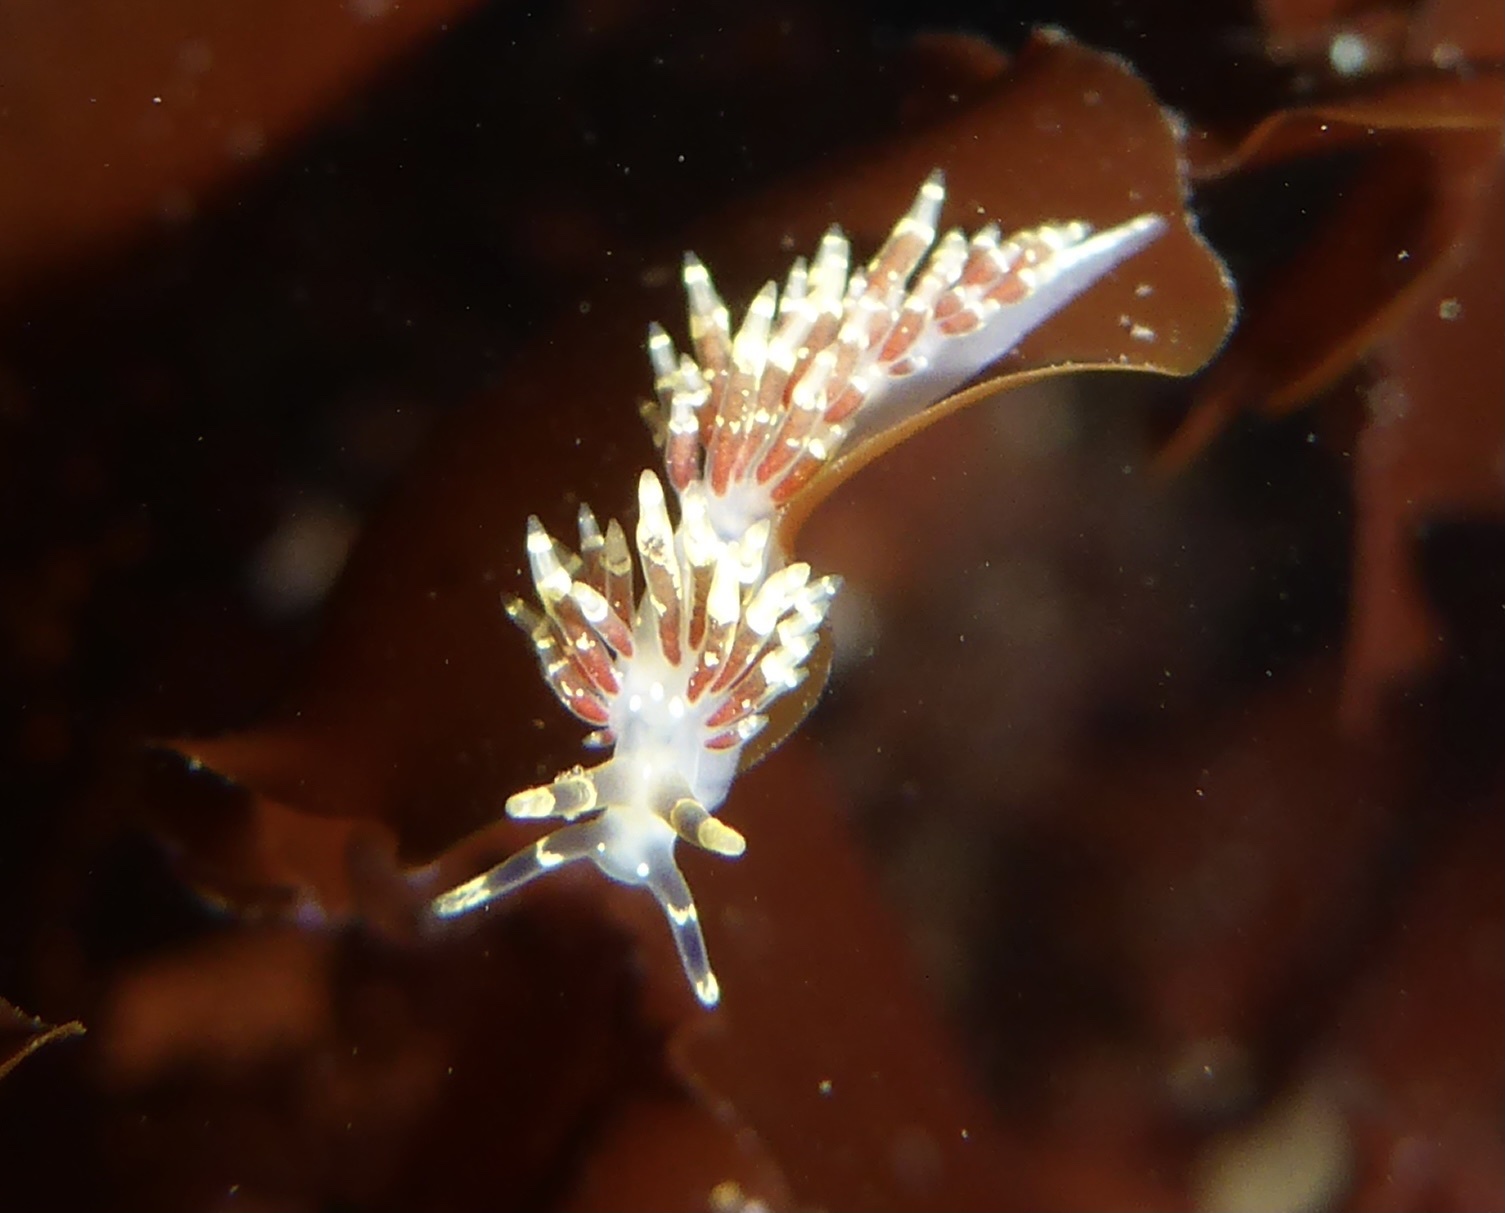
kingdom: Animalia
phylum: Mollusca
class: Gastropoda
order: Nudibranchia
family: Abronicidae
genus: Abronica
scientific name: Abronica abronia
